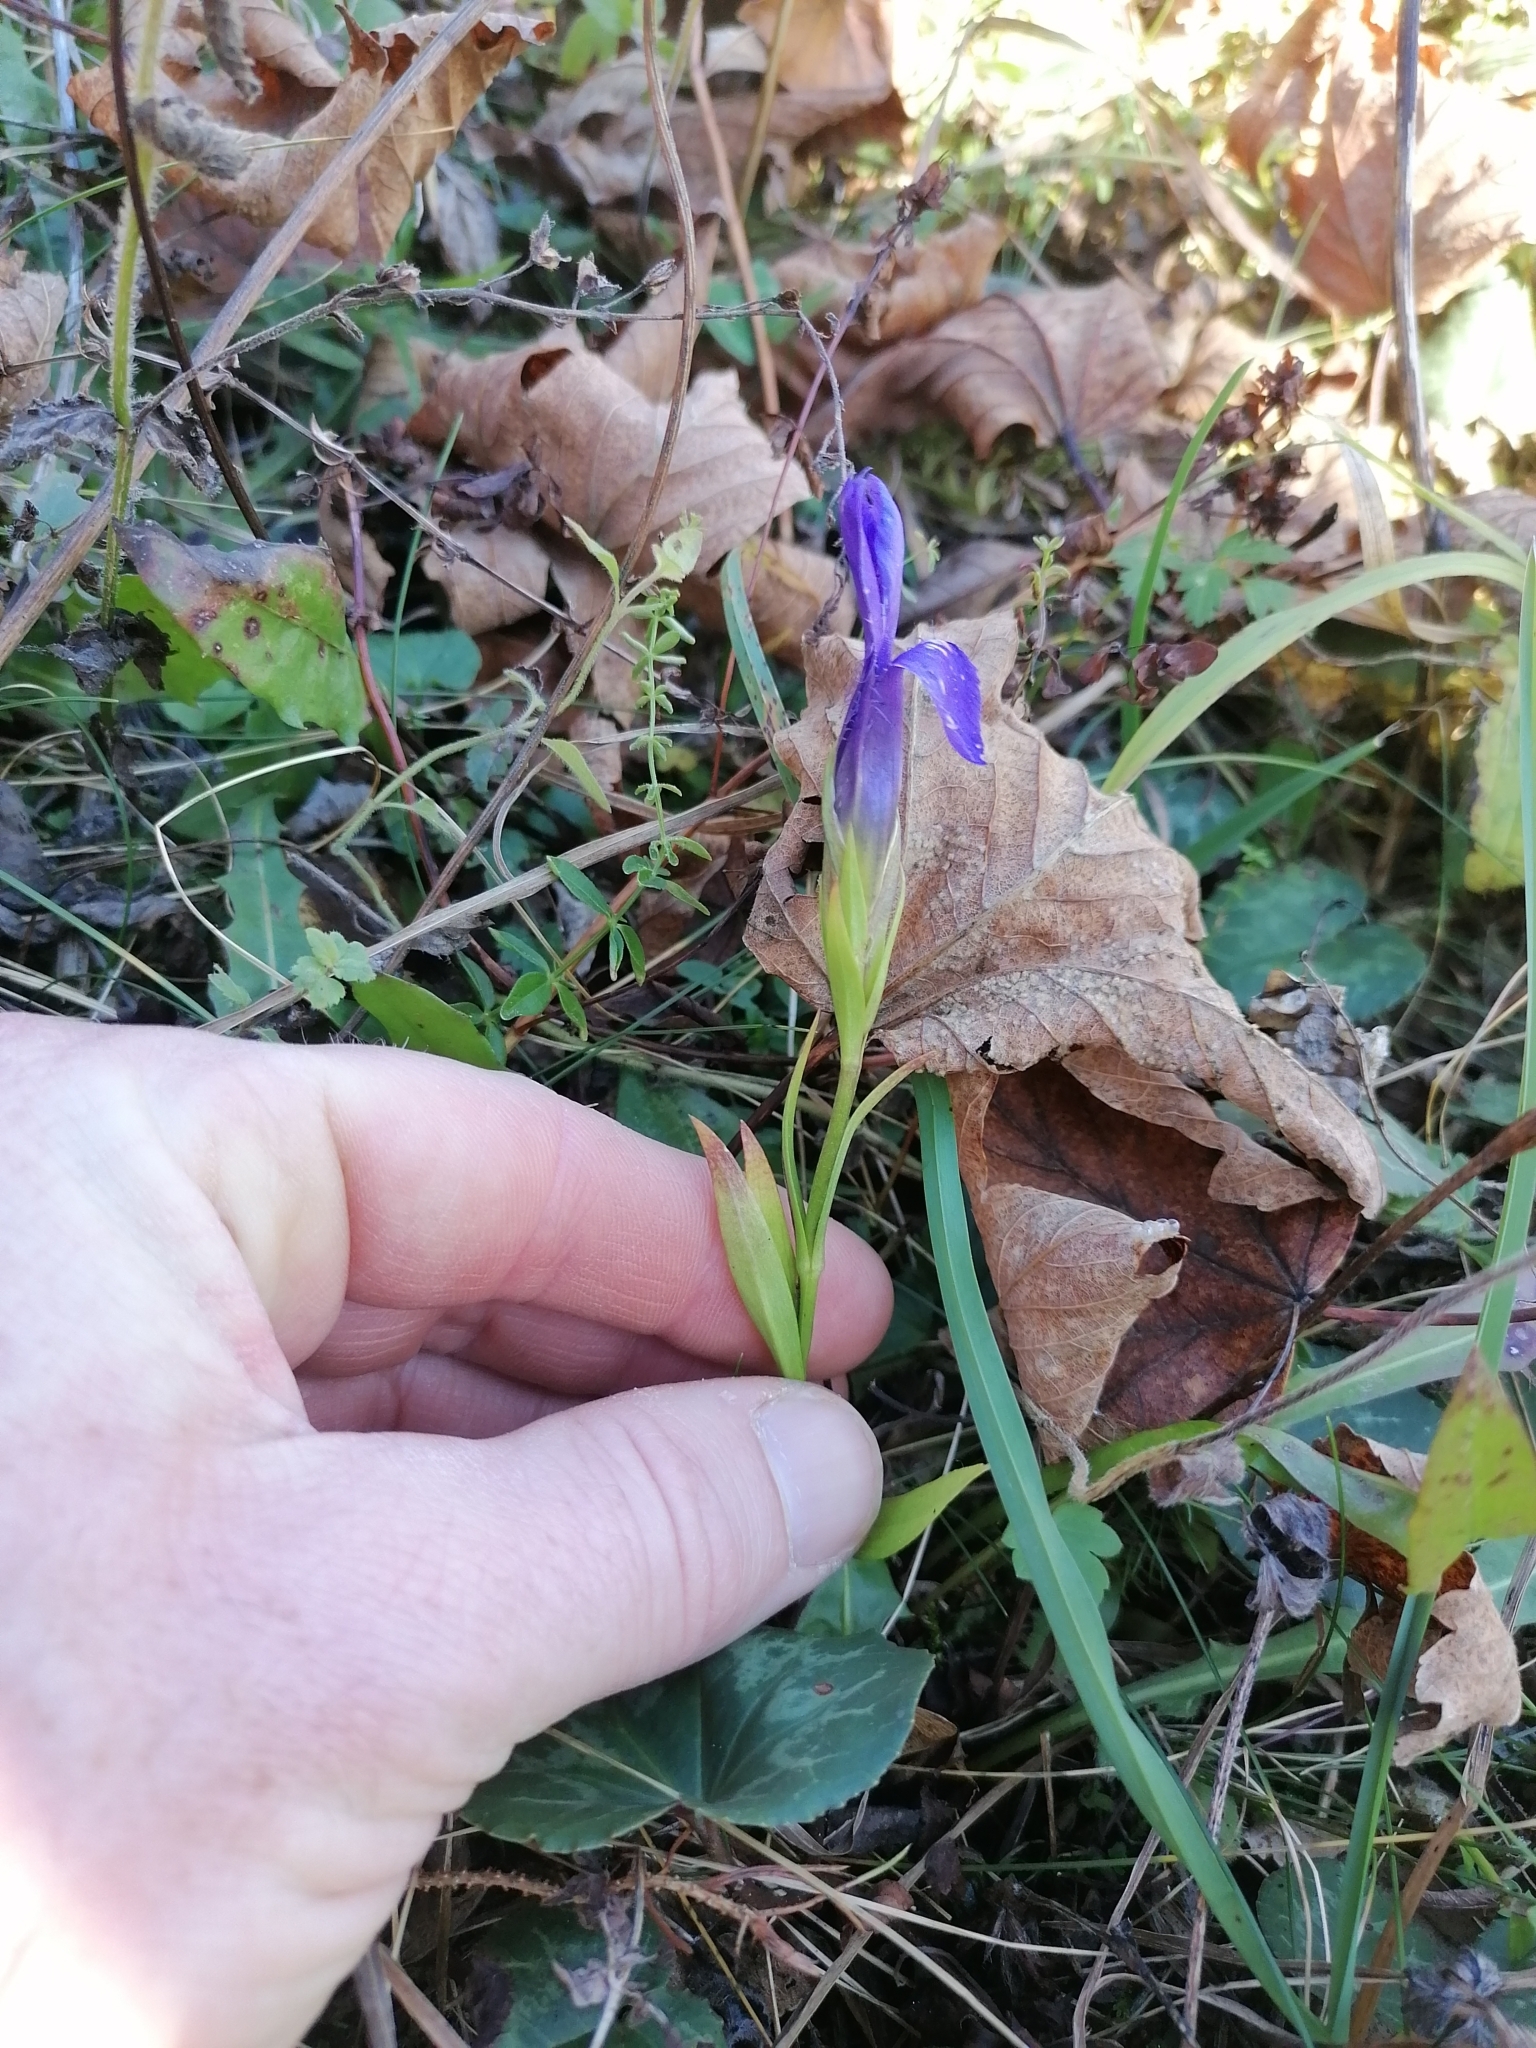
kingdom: Plantae
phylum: Tracheophyta
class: Magnoliopsida
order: Gentianales
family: Gentianaceae
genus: Gentianopsis
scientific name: Gentianopsis ciliata
